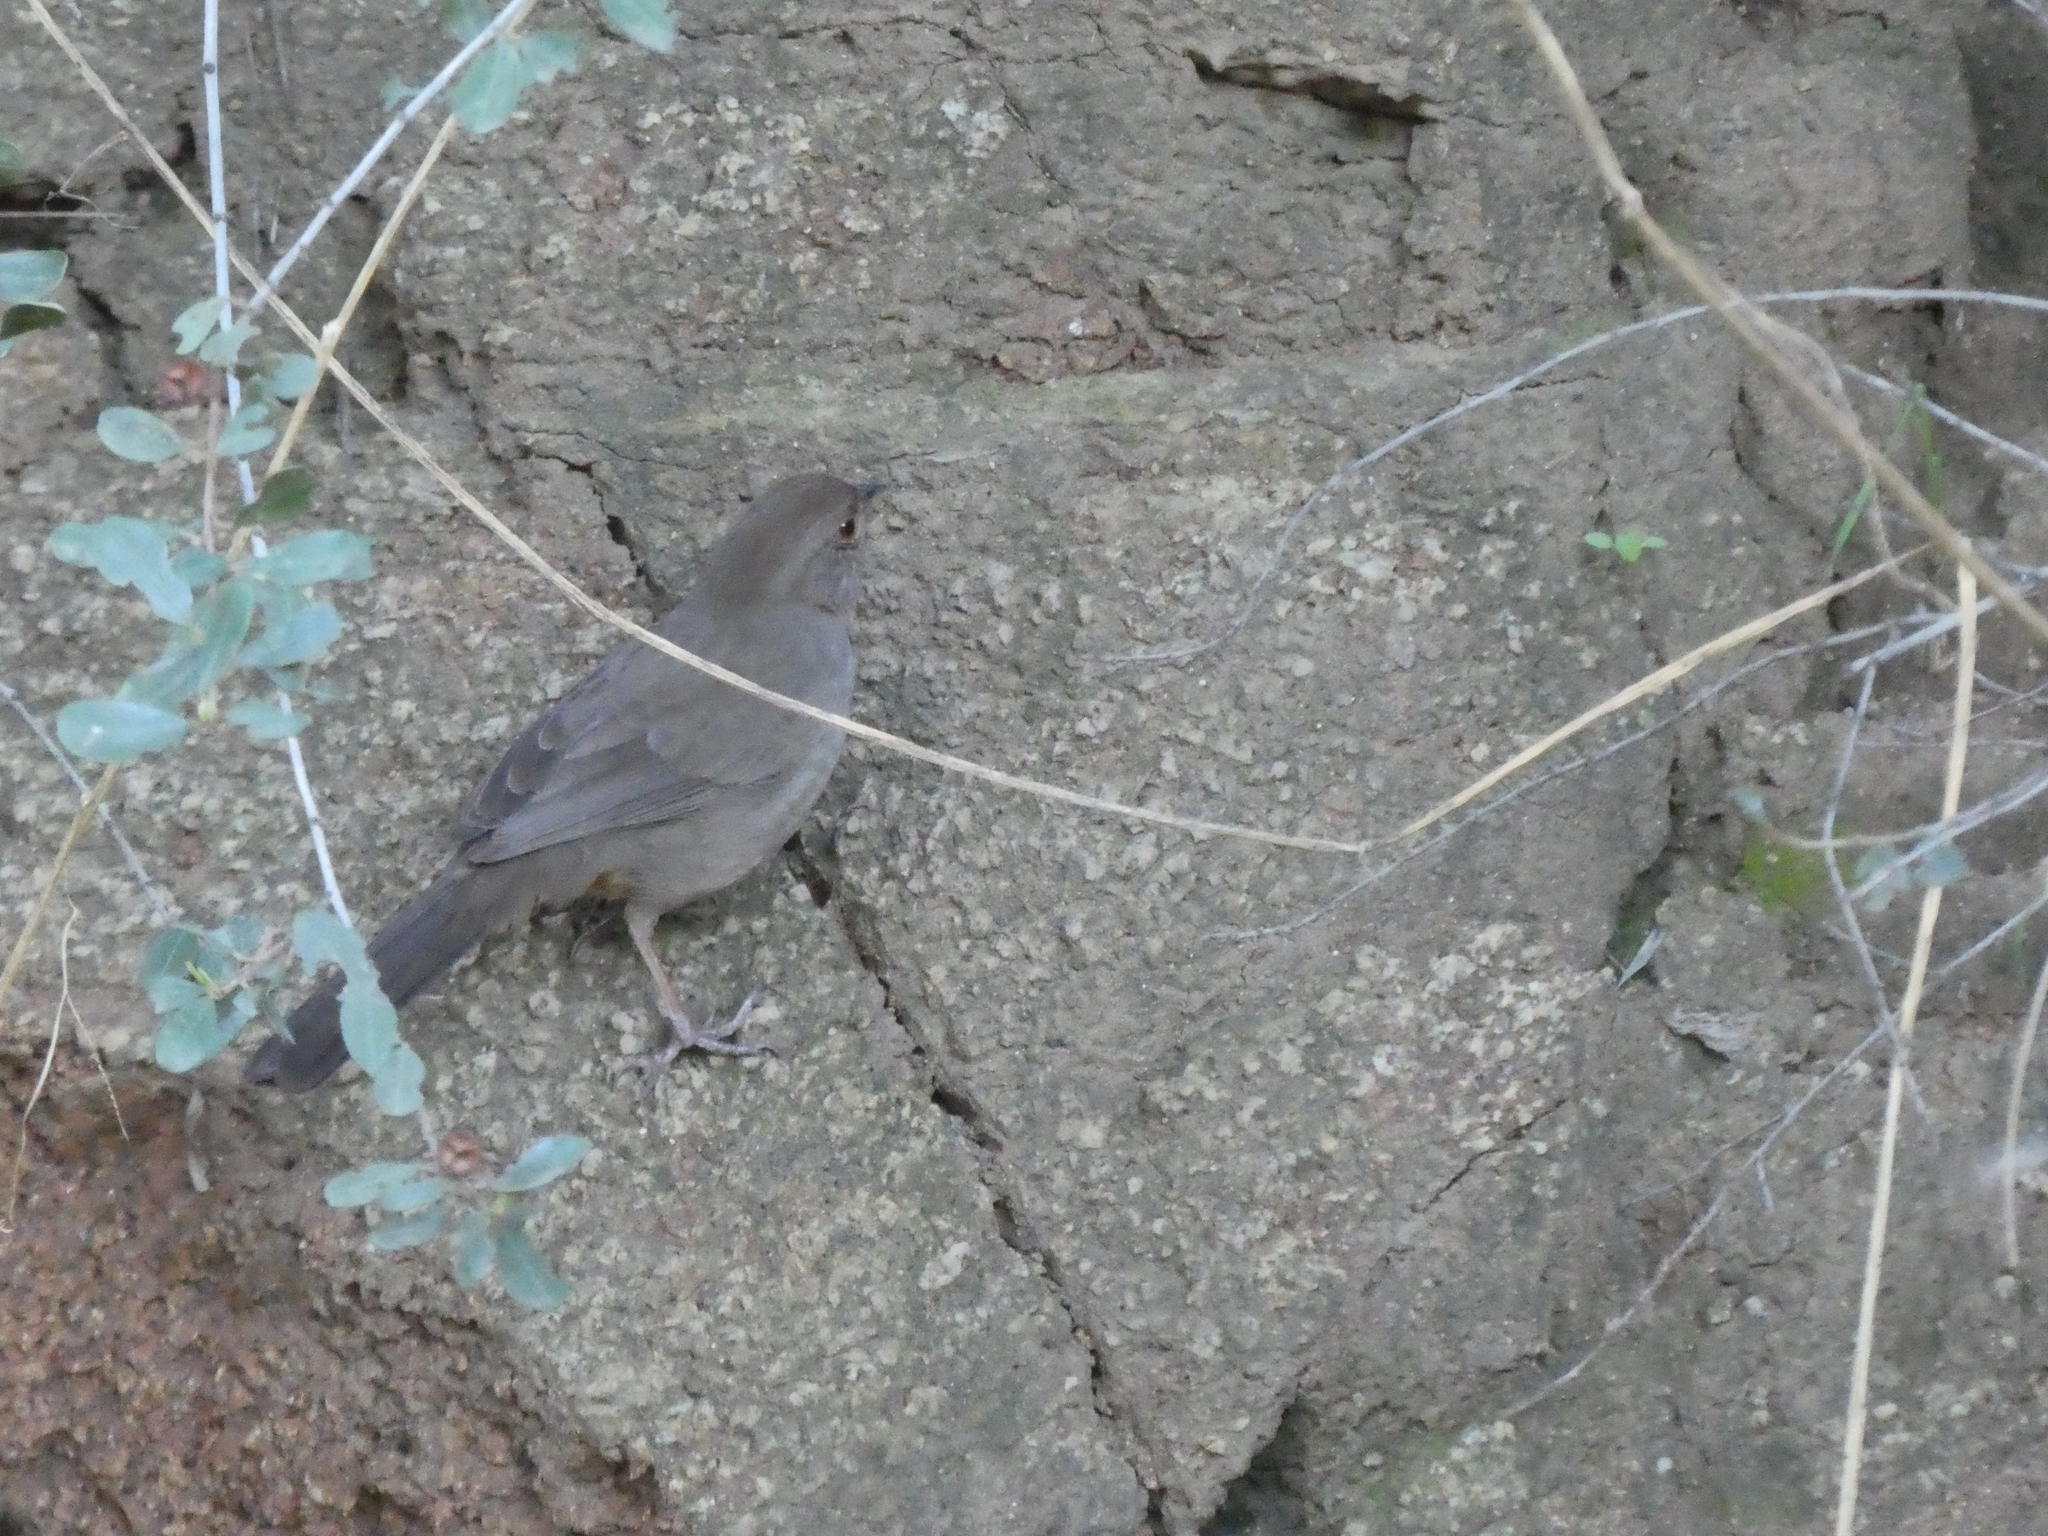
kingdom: Animalia
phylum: Chordata
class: Aves
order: Passeriformes
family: Passerellidae
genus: Melozone
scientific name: Melozone crissalis
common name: California towhee
